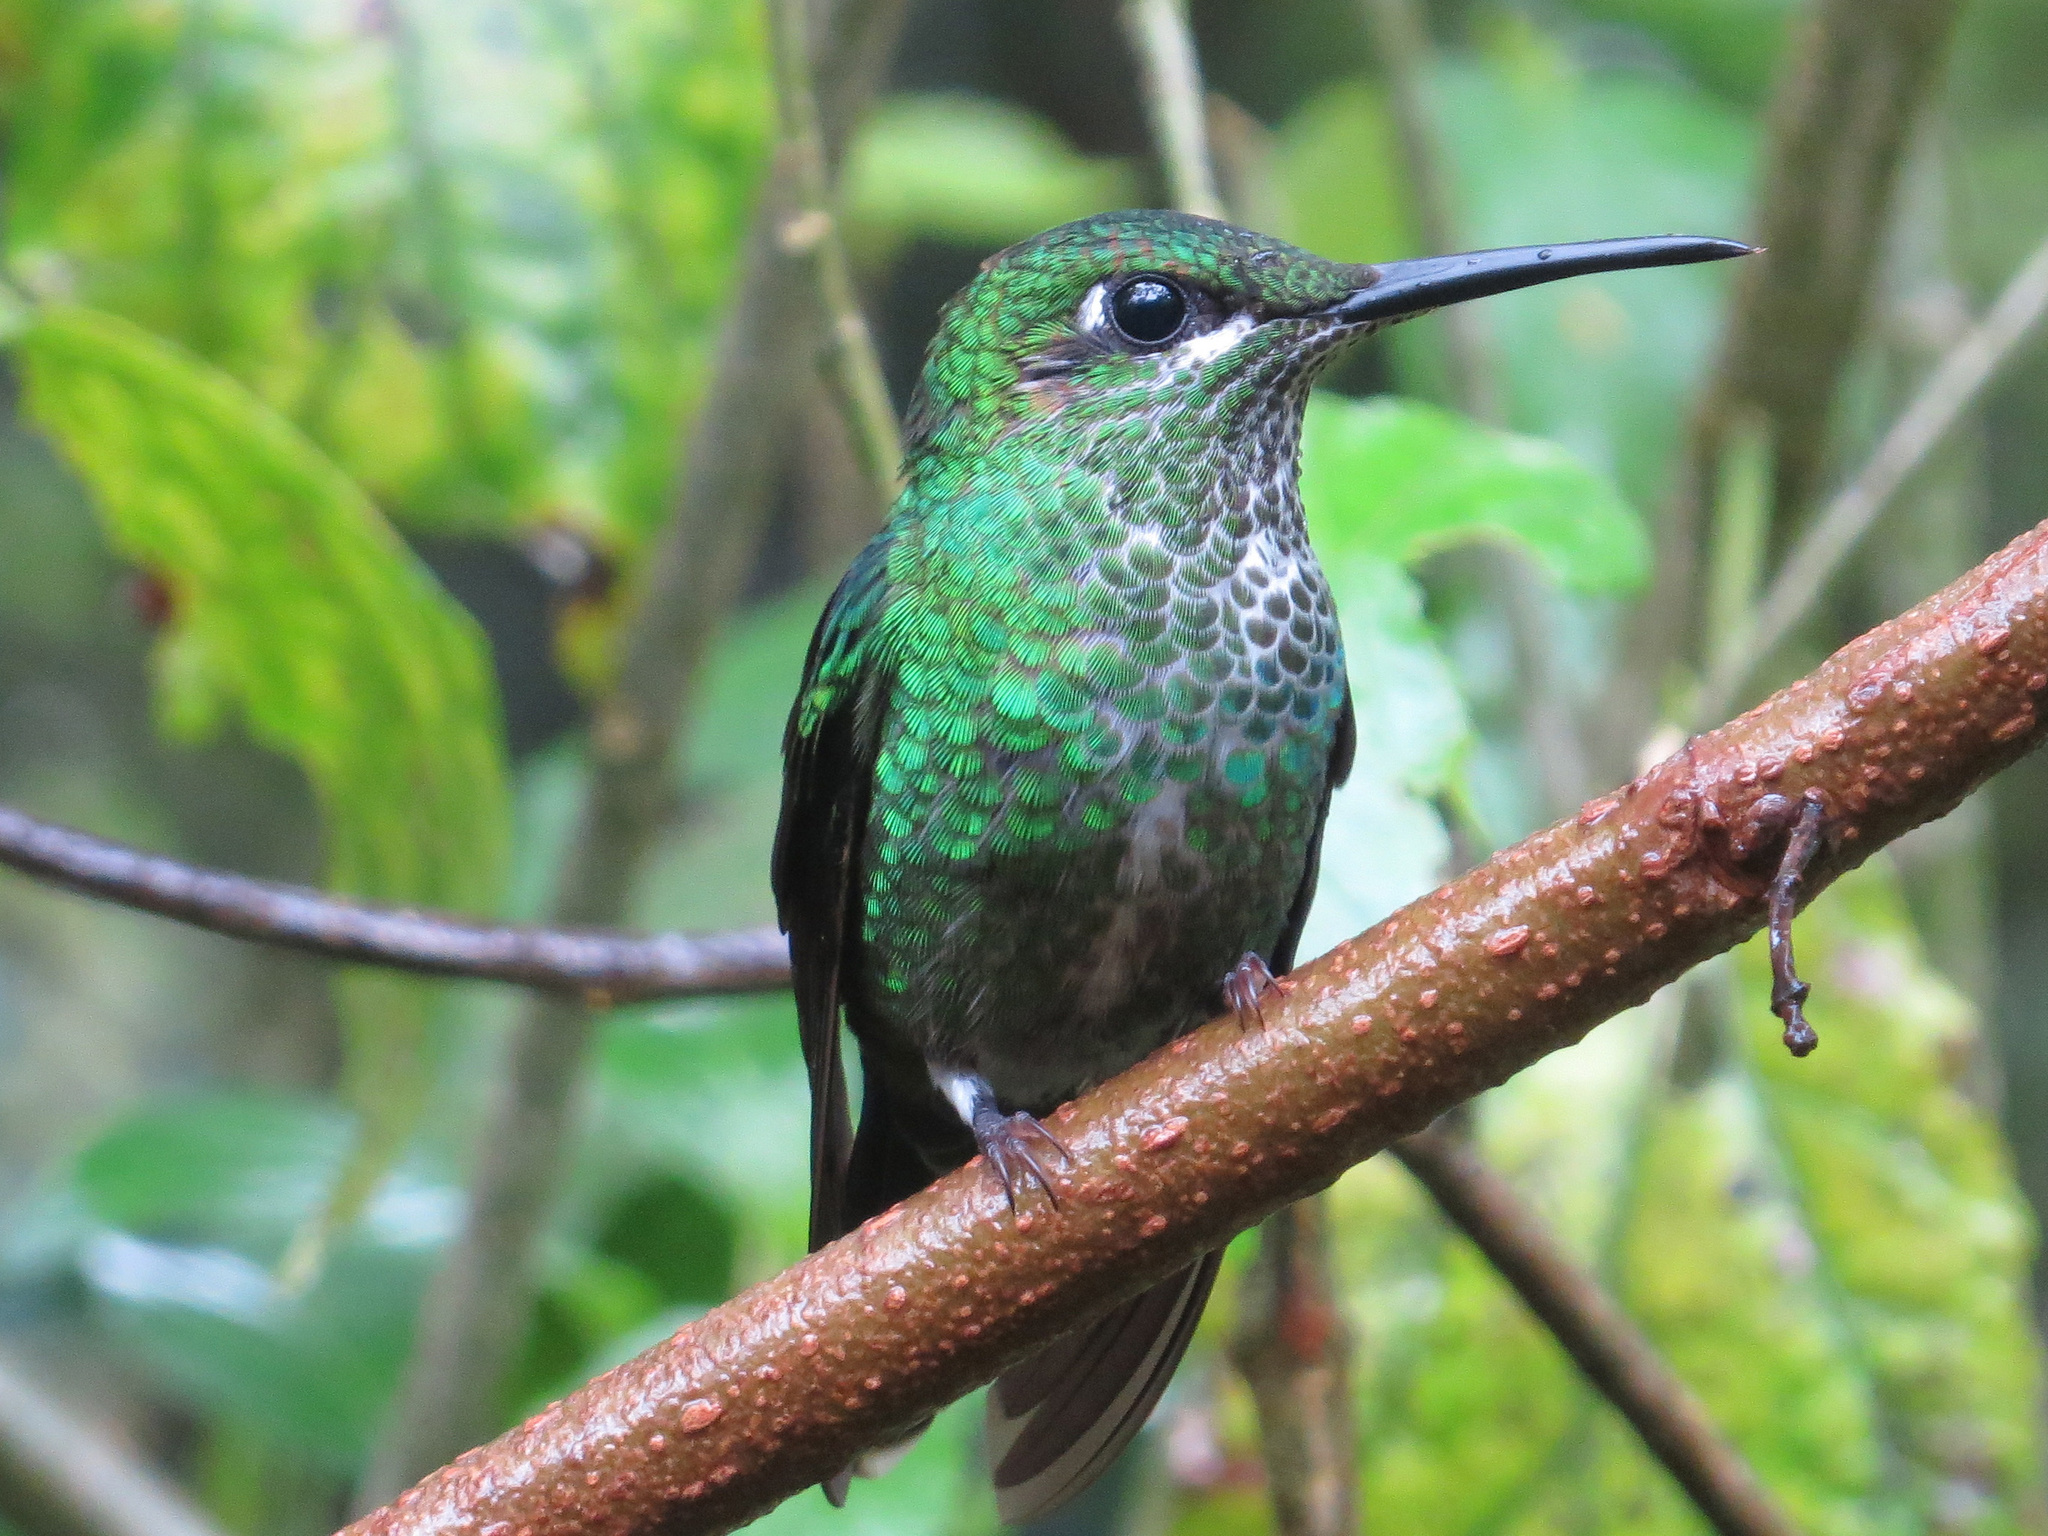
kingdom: Animalia
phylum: Chordata
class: Aves
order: Apodiformes
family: Trochilidae
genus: Heliodoxa
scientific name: Heliodoxa jacula
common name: Green-crowned brilliant
